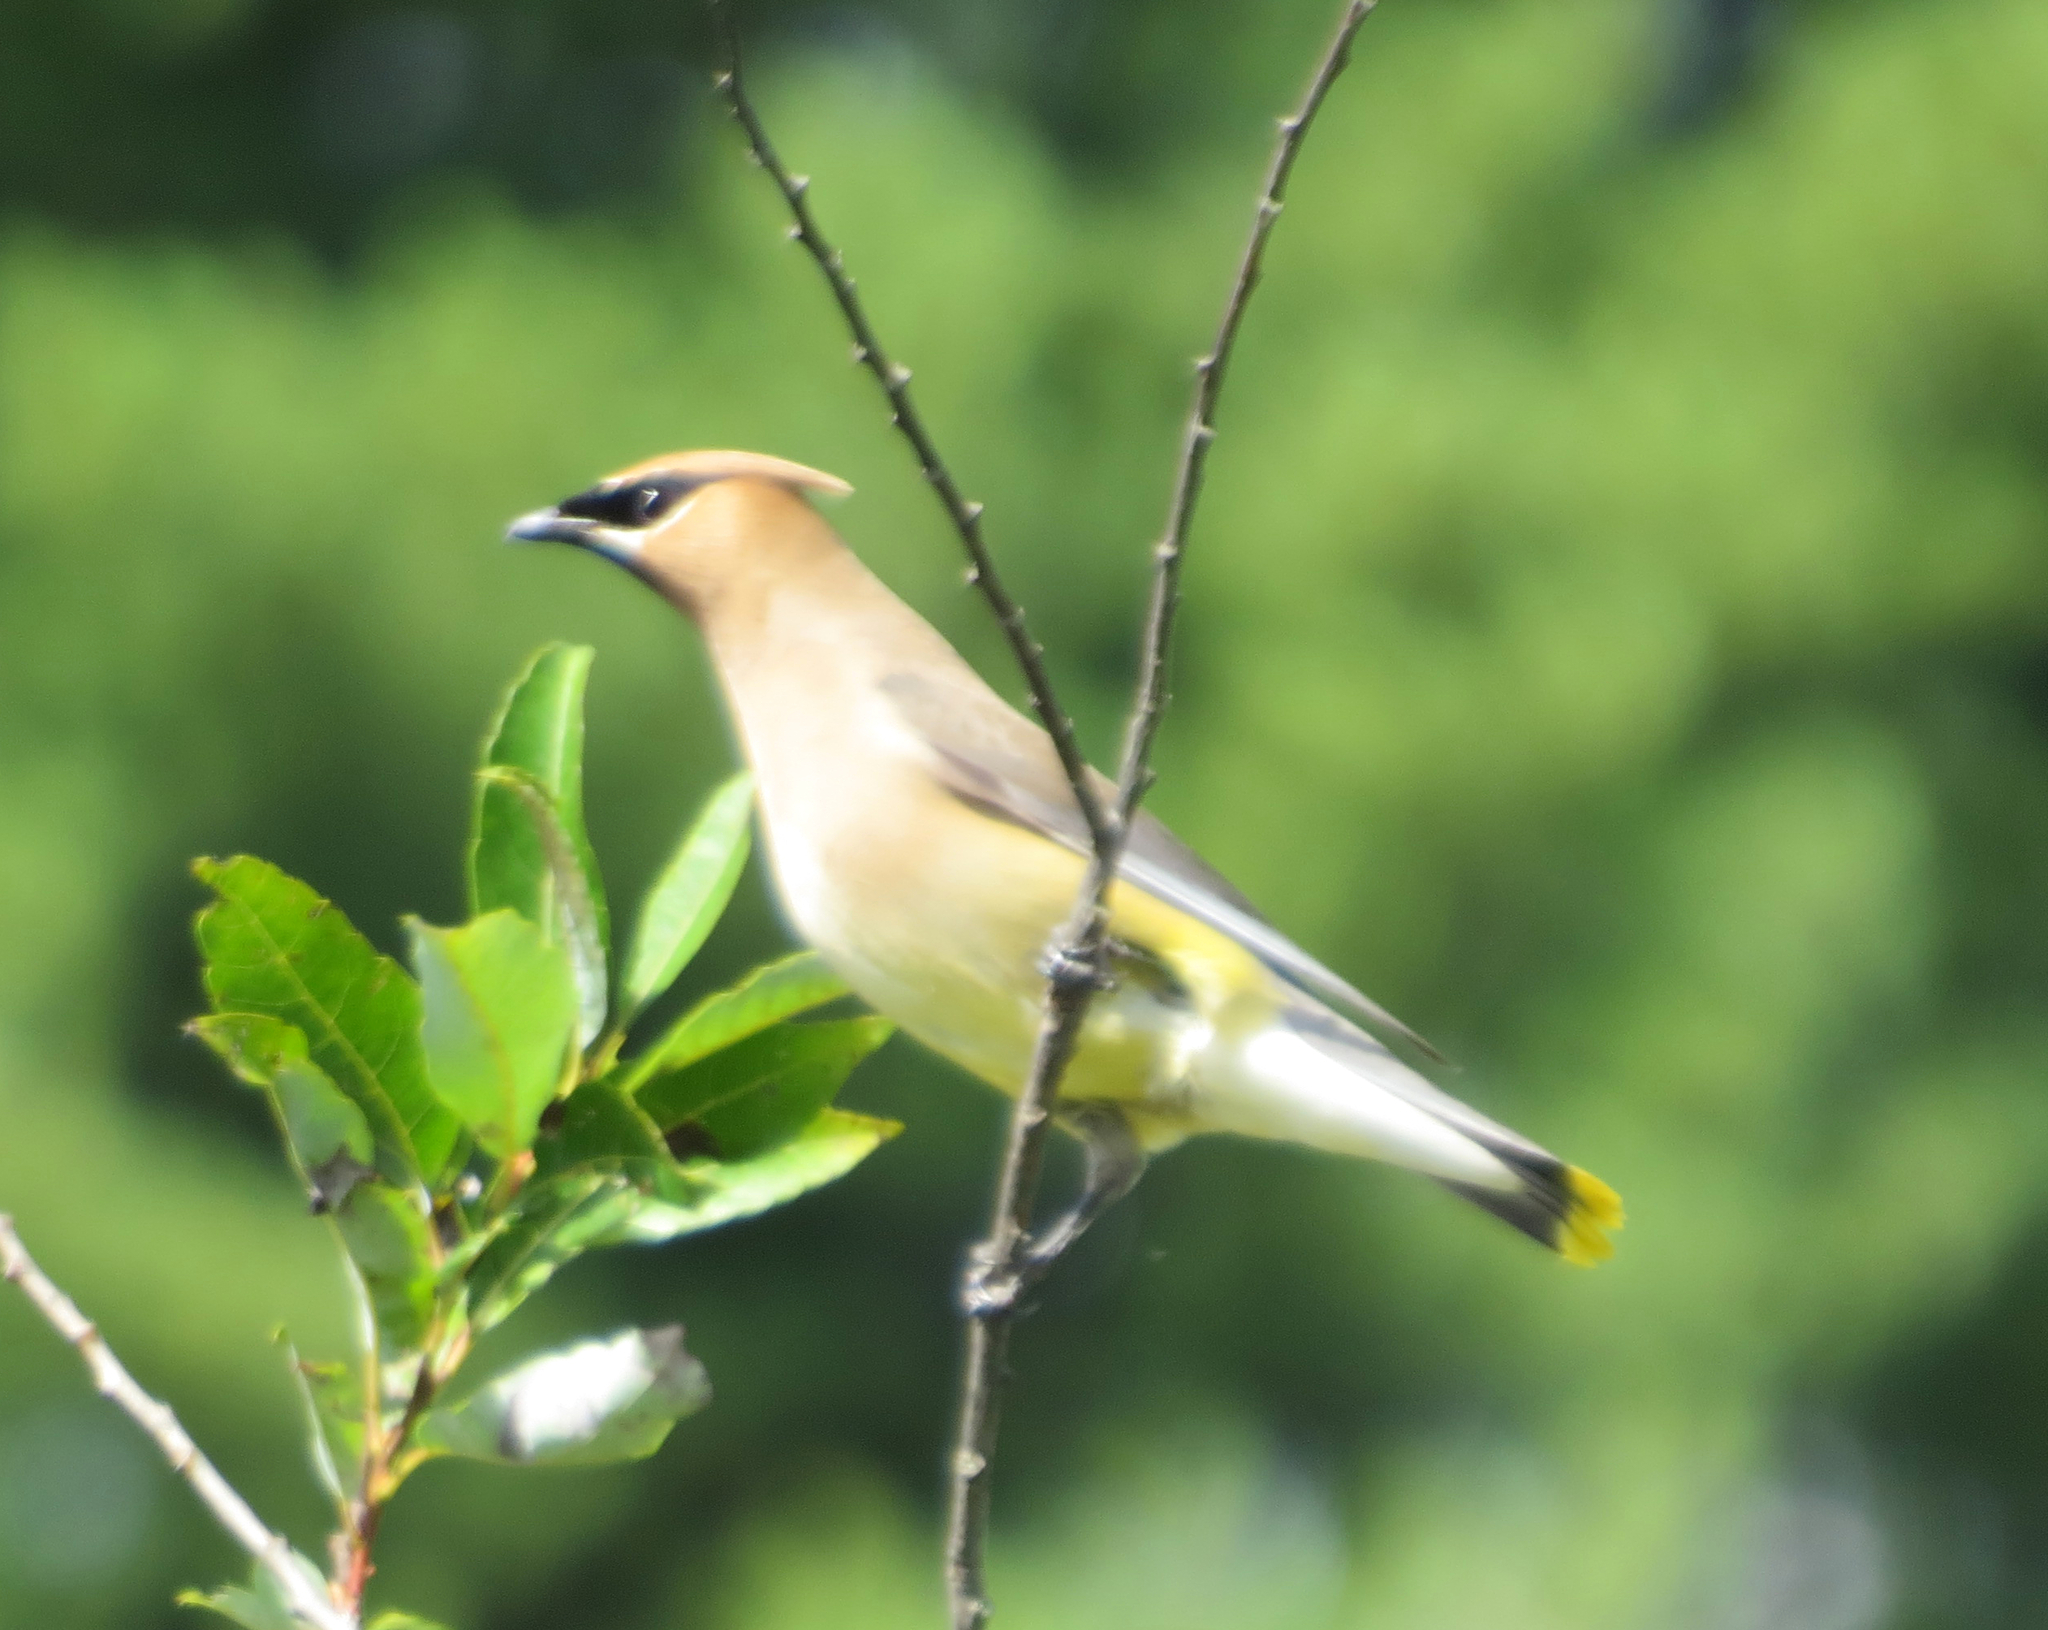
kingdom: Animalia
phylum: Chordata
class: Aves
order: Passeriformes
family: Bombycillidae
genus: Bombycilla
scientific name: Bombycilla cedrorum
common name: Cedar waxwing
